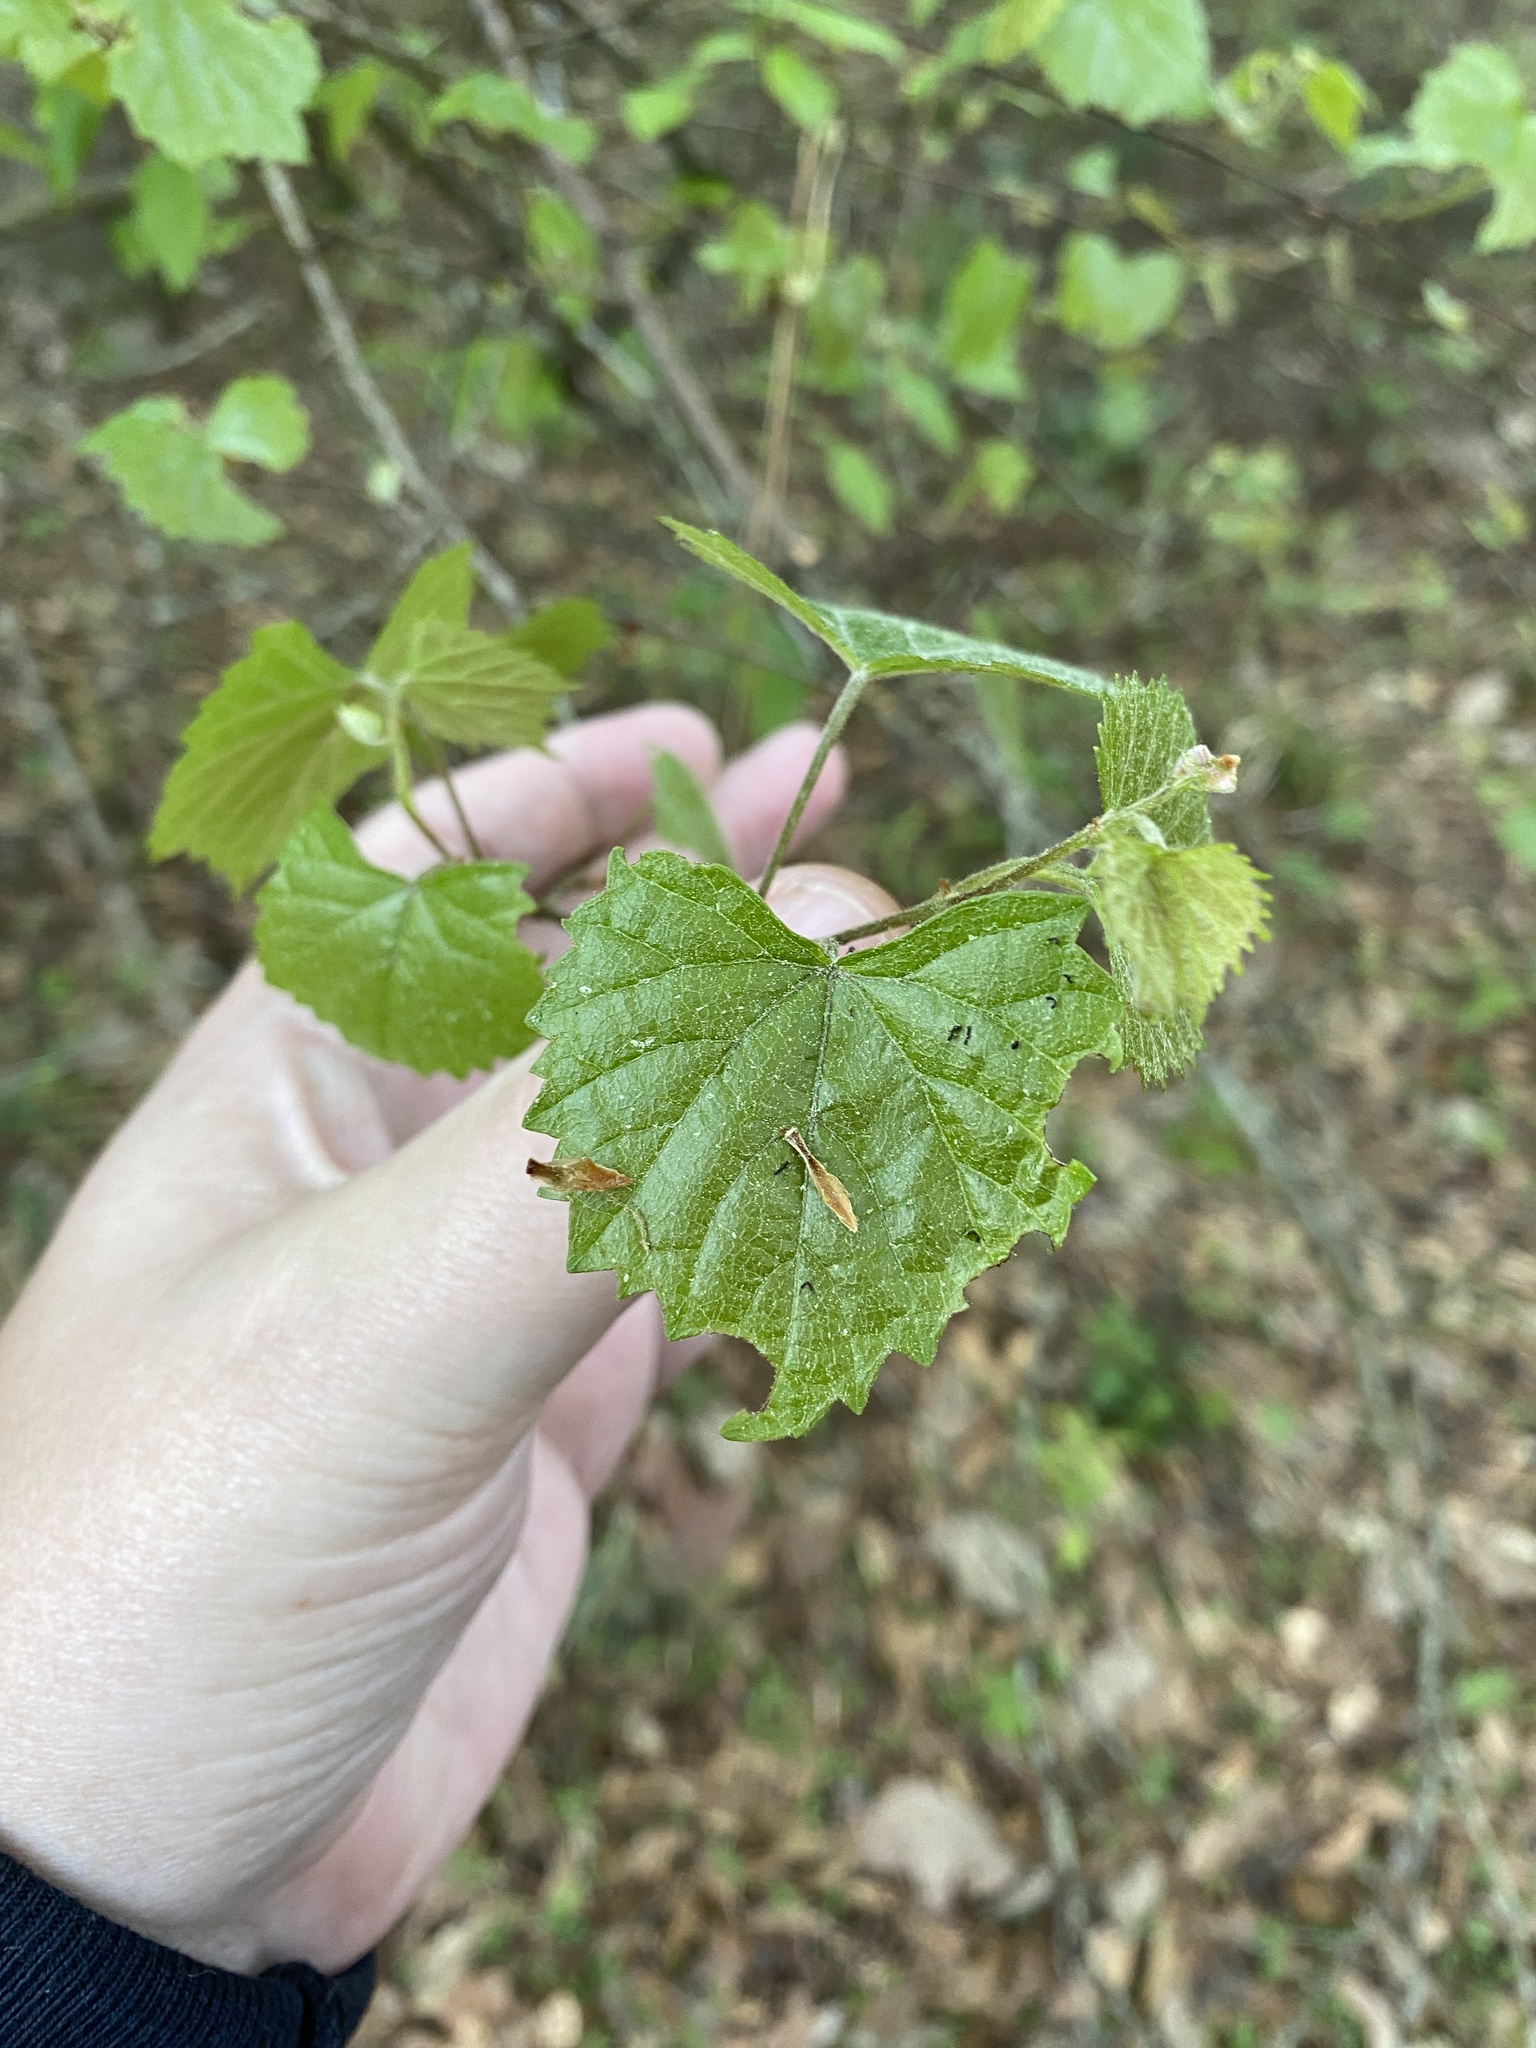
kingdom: Plantae
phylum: Tracheophyta
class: Magnoliopsida
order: Vitales
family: Vitaceae
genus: Vitis
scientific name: Vitis rotundifolia
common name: Muscadine grape
